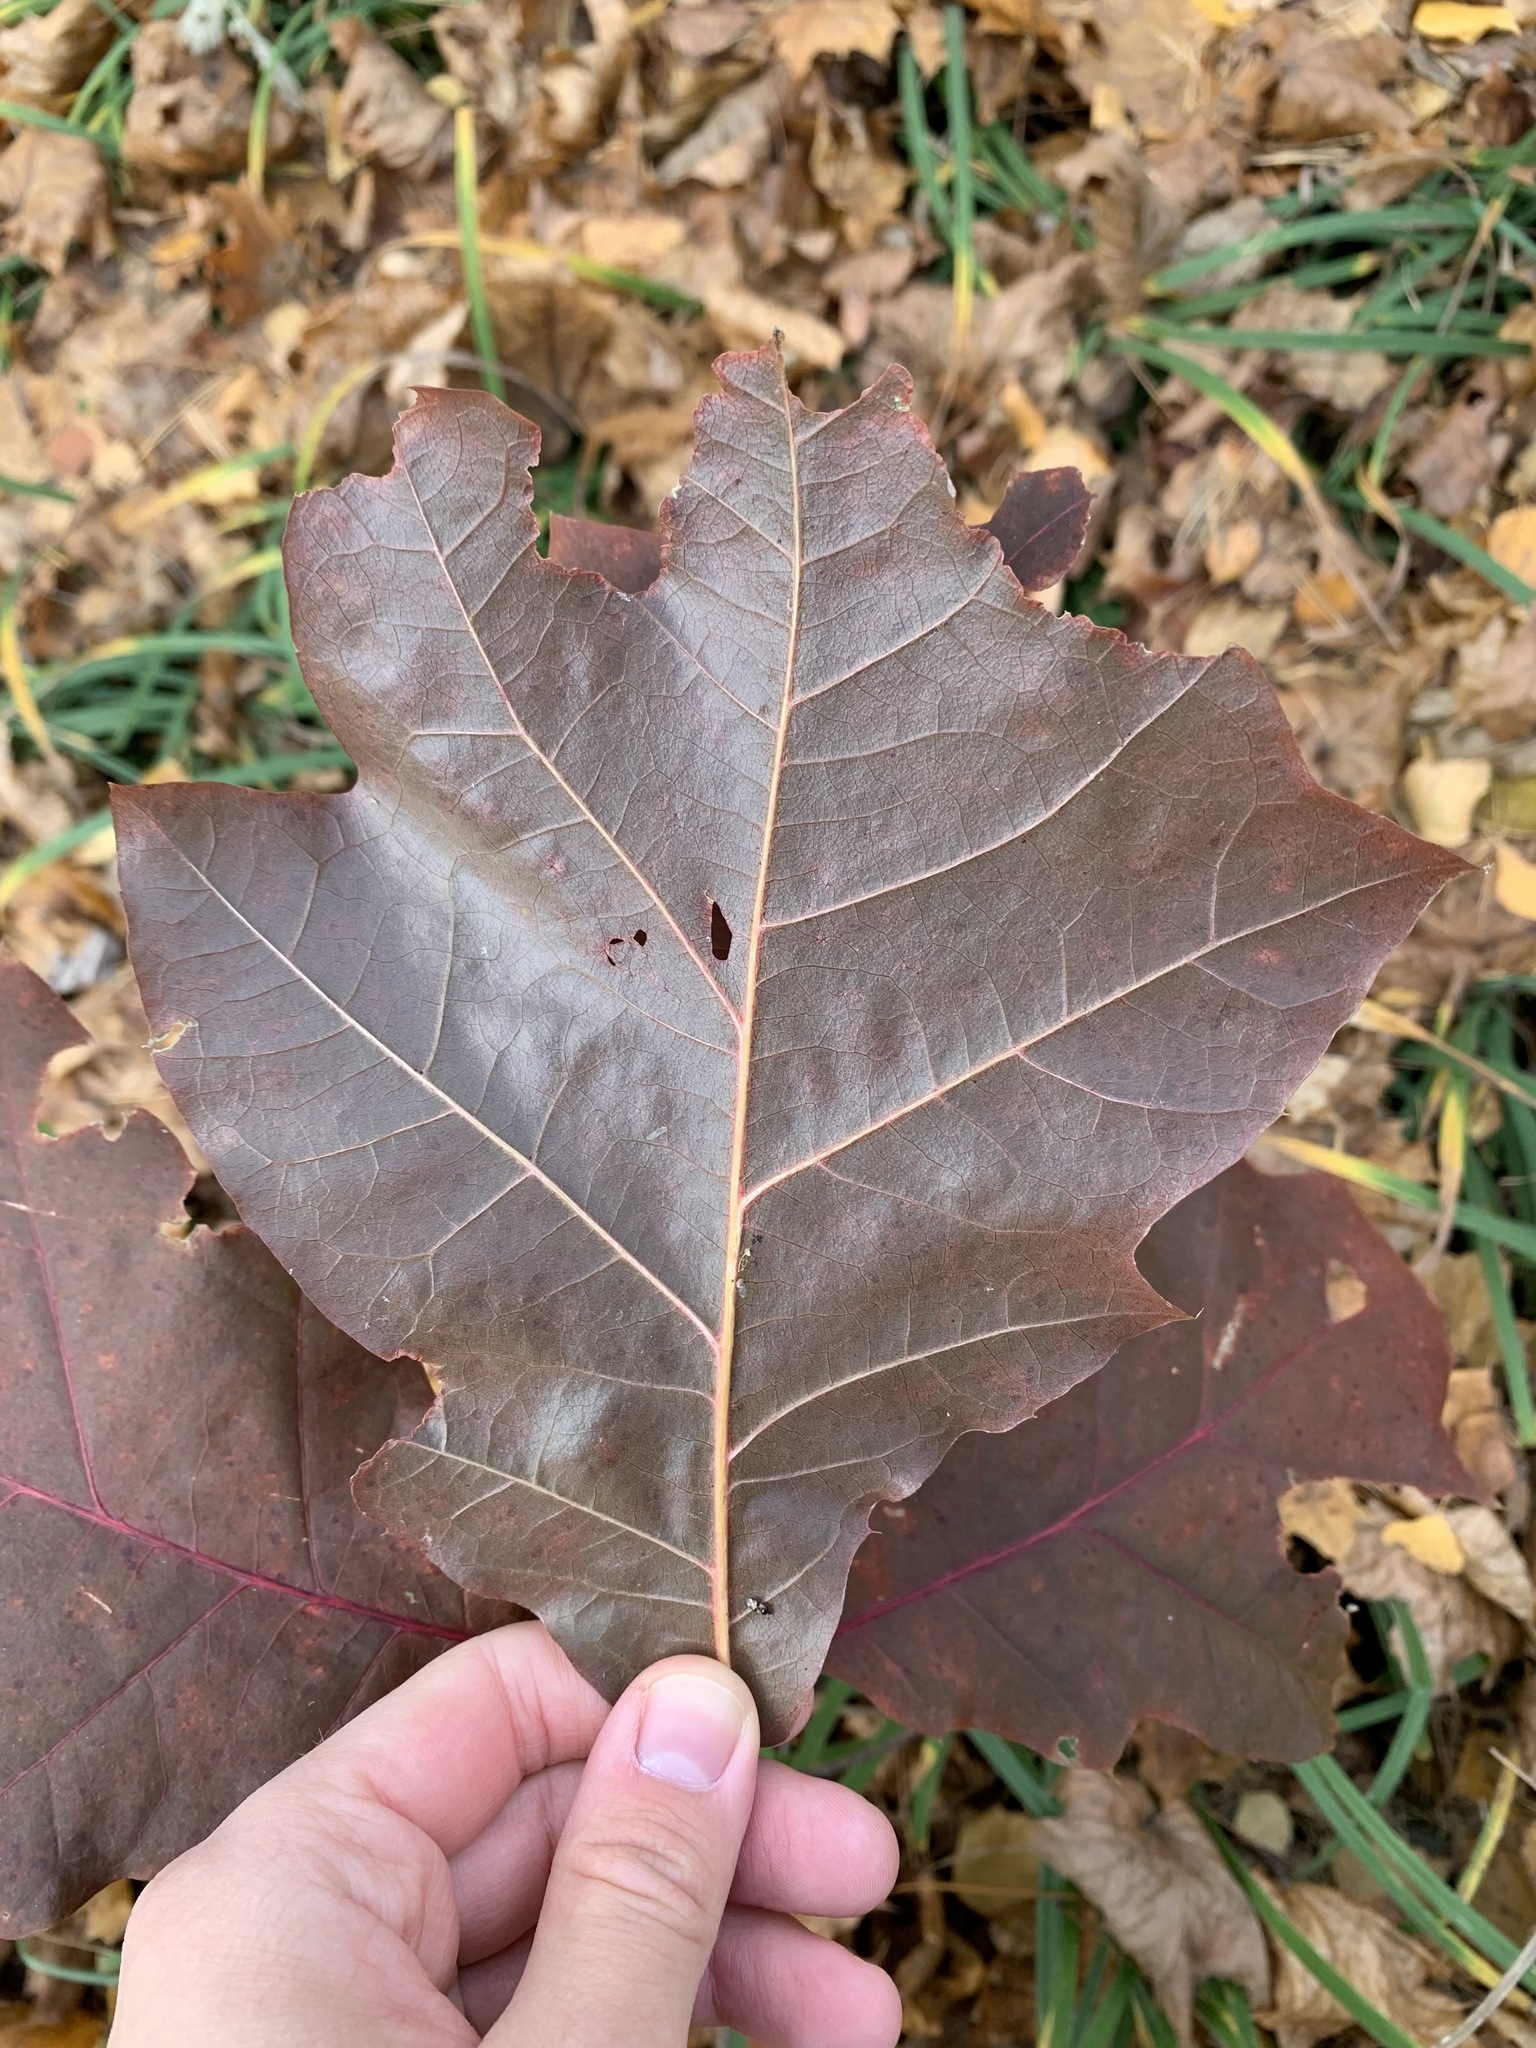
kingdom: Plantae
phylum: Tracheophyta
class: Magnoliopsida
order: Fagales
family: Fagaceae
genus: Quercus
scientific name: Quercus rubra
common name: Red oak
